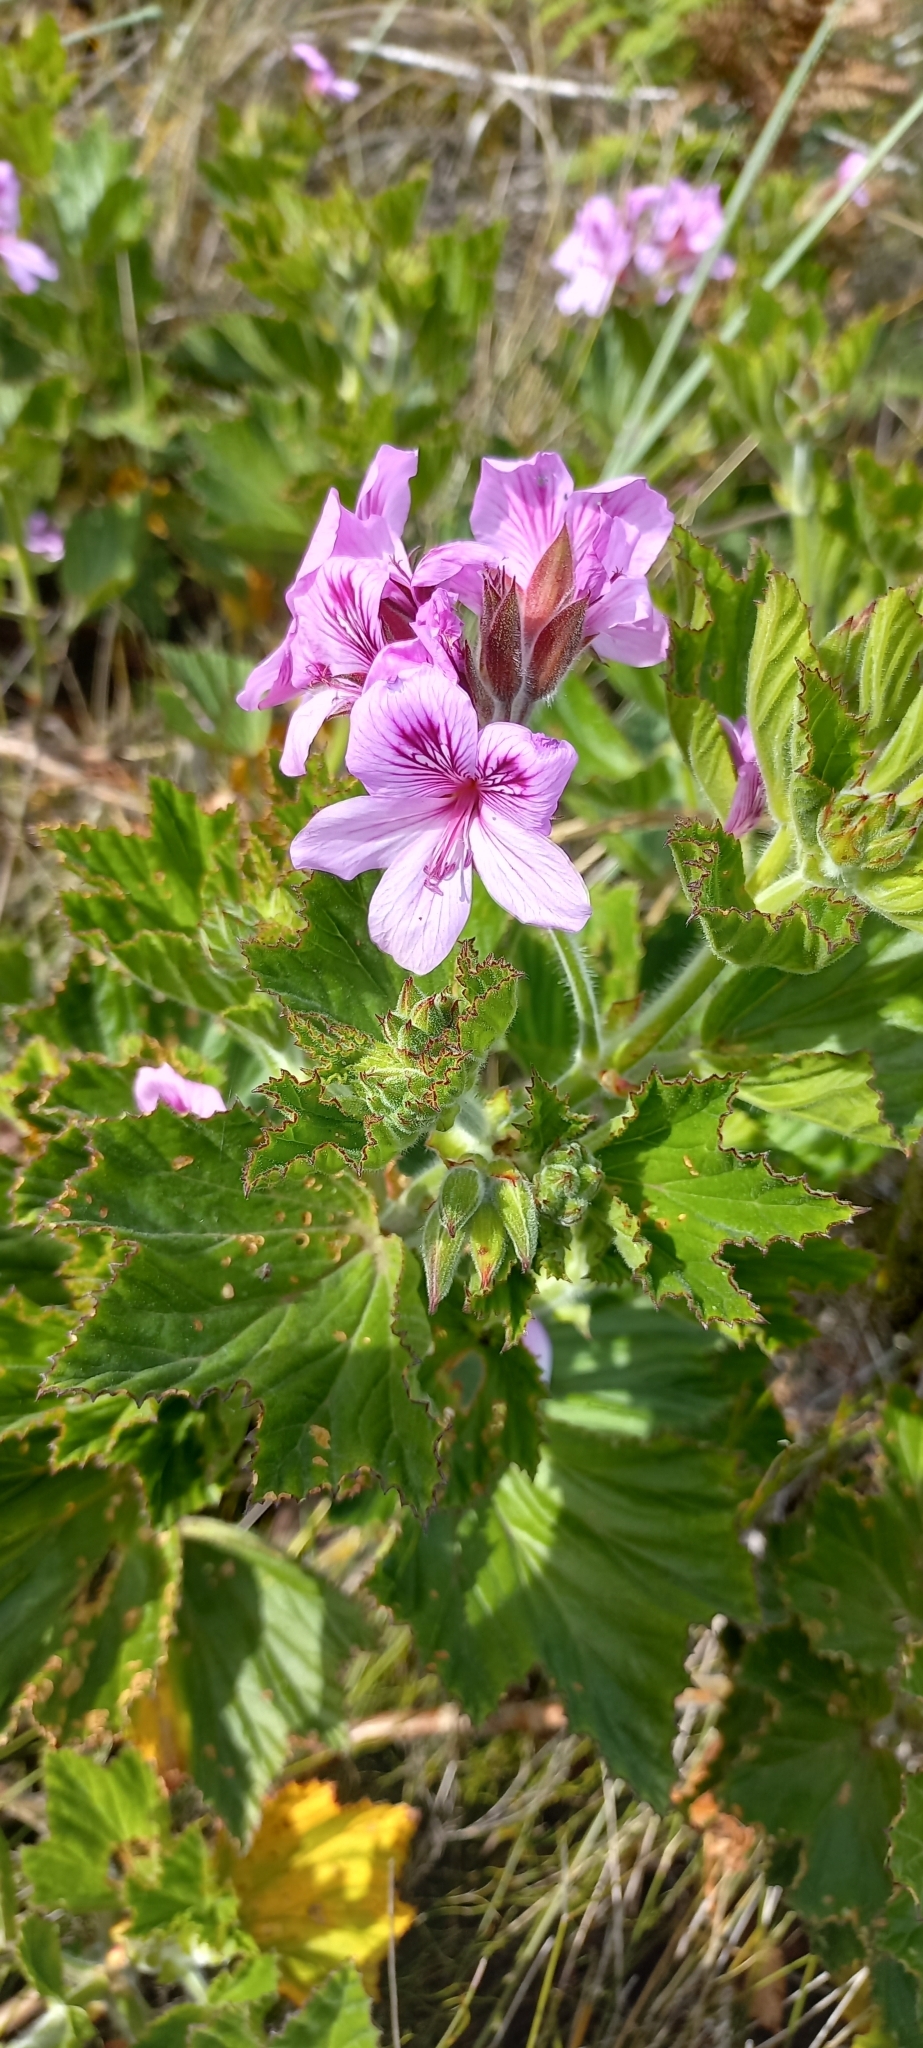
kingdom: Plantae
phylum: Tracheophyta
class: Magnoliopsida
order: Geraniales
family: Geraniaceae
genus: Pelargonium
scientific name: Pelargonium cucullatum
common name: Tree pelargonium
